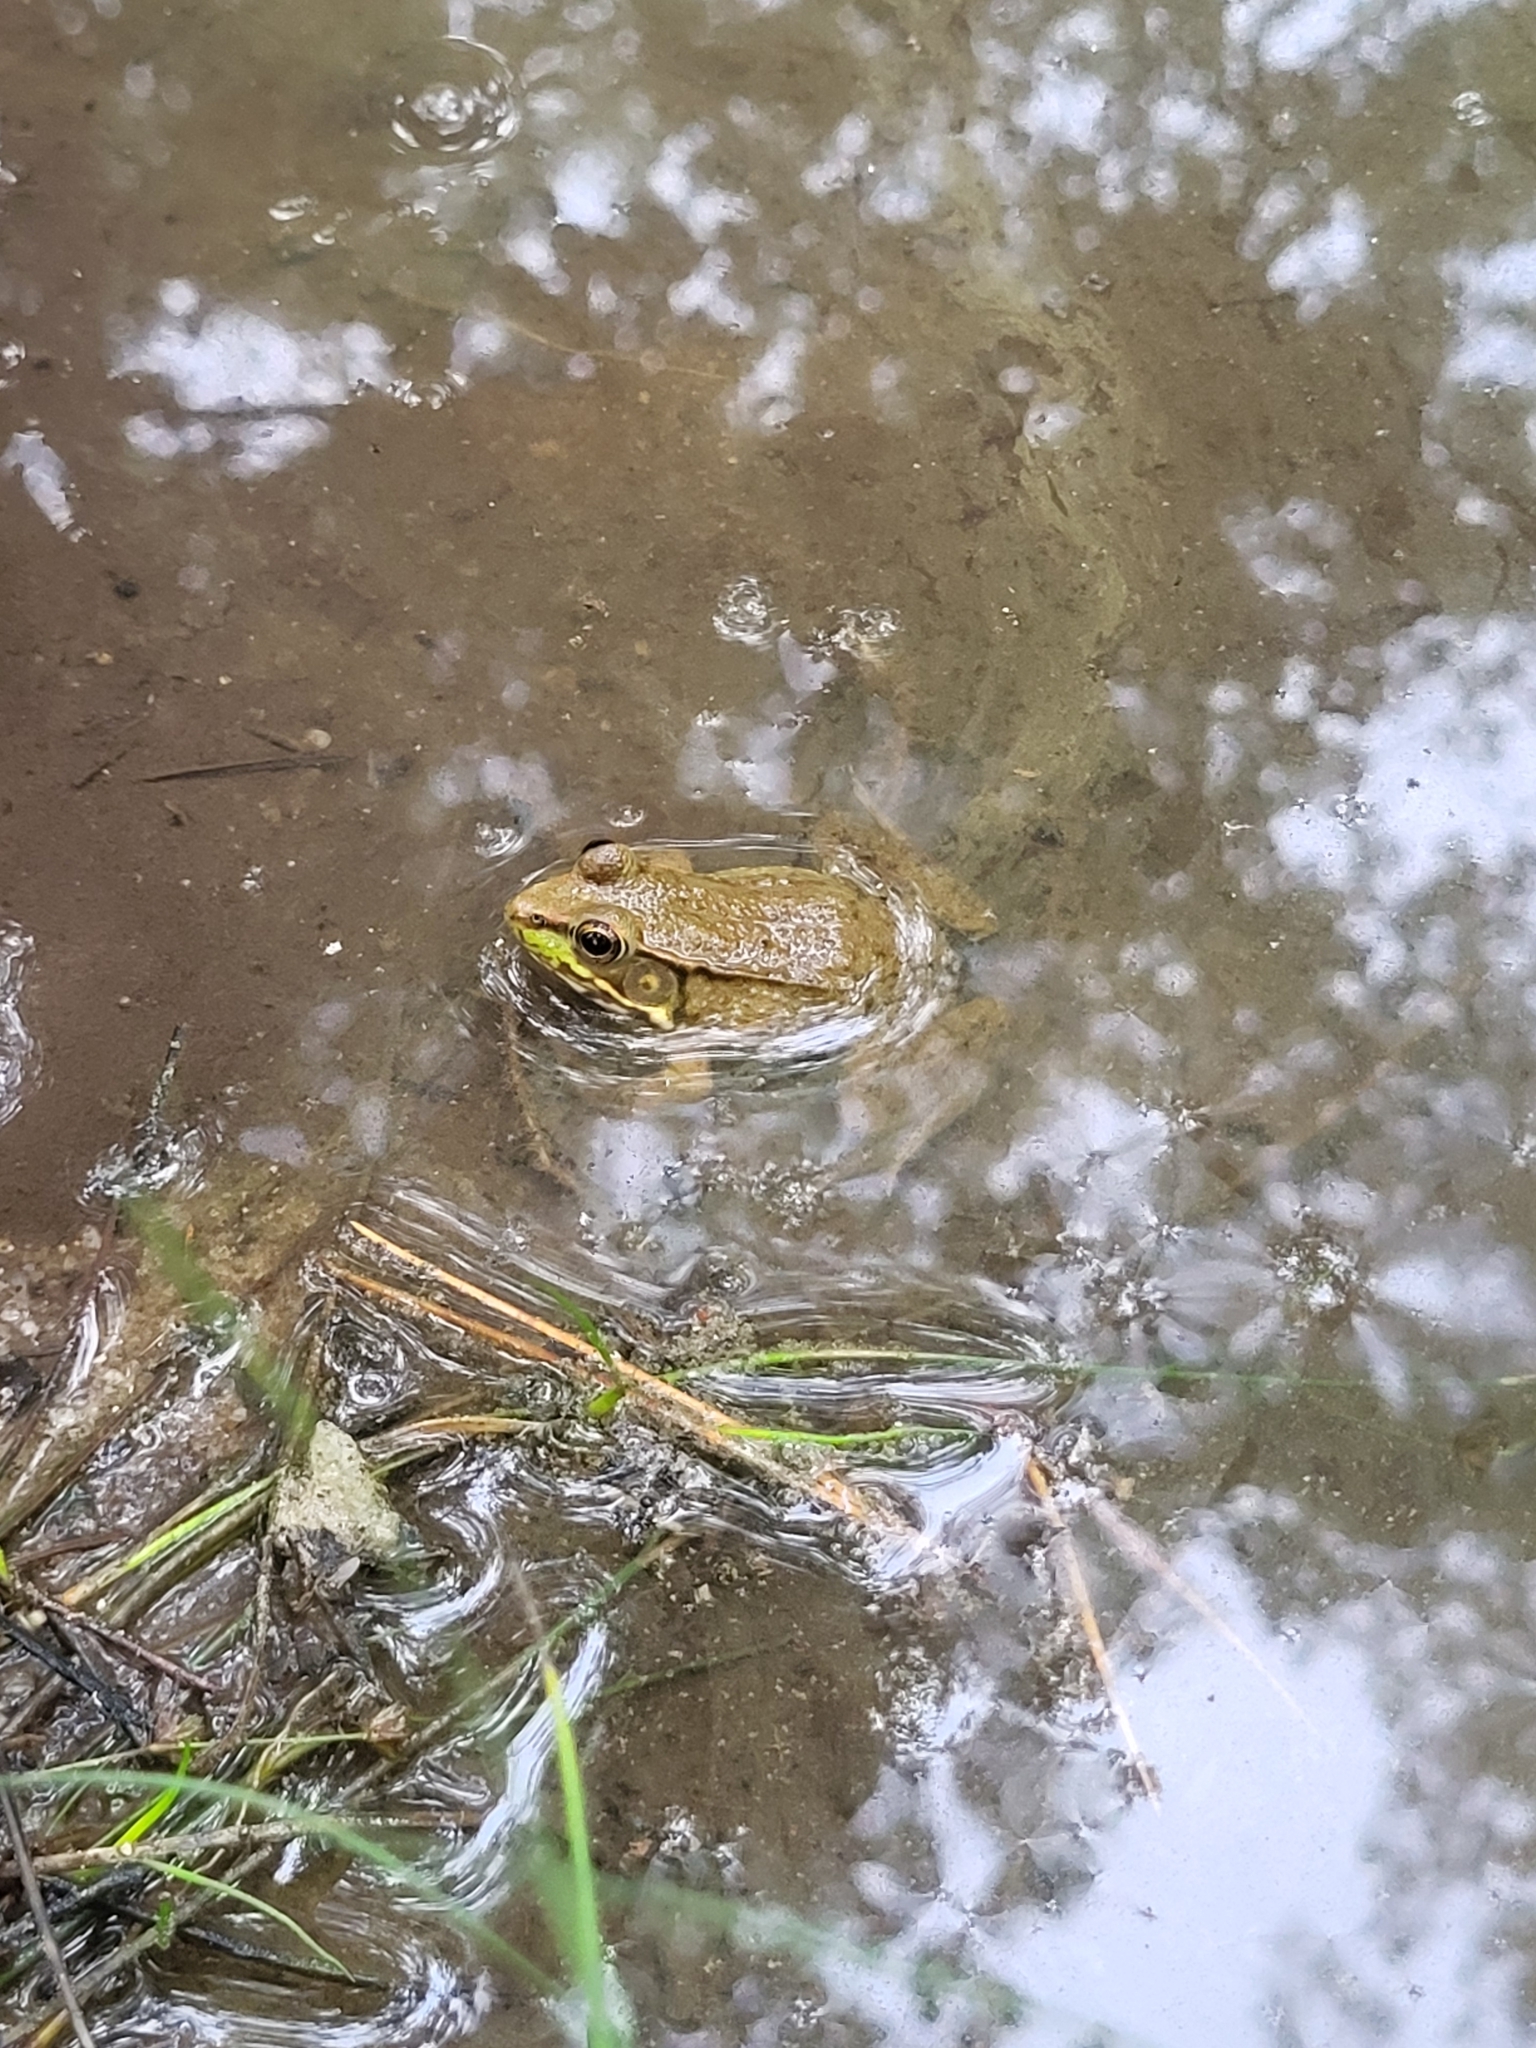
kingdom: Animalia
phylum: Chordata
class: Amphibia
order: Anura
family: Ranidae
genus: Lithobates
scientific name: Lithobates clamitans
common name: Green frog
